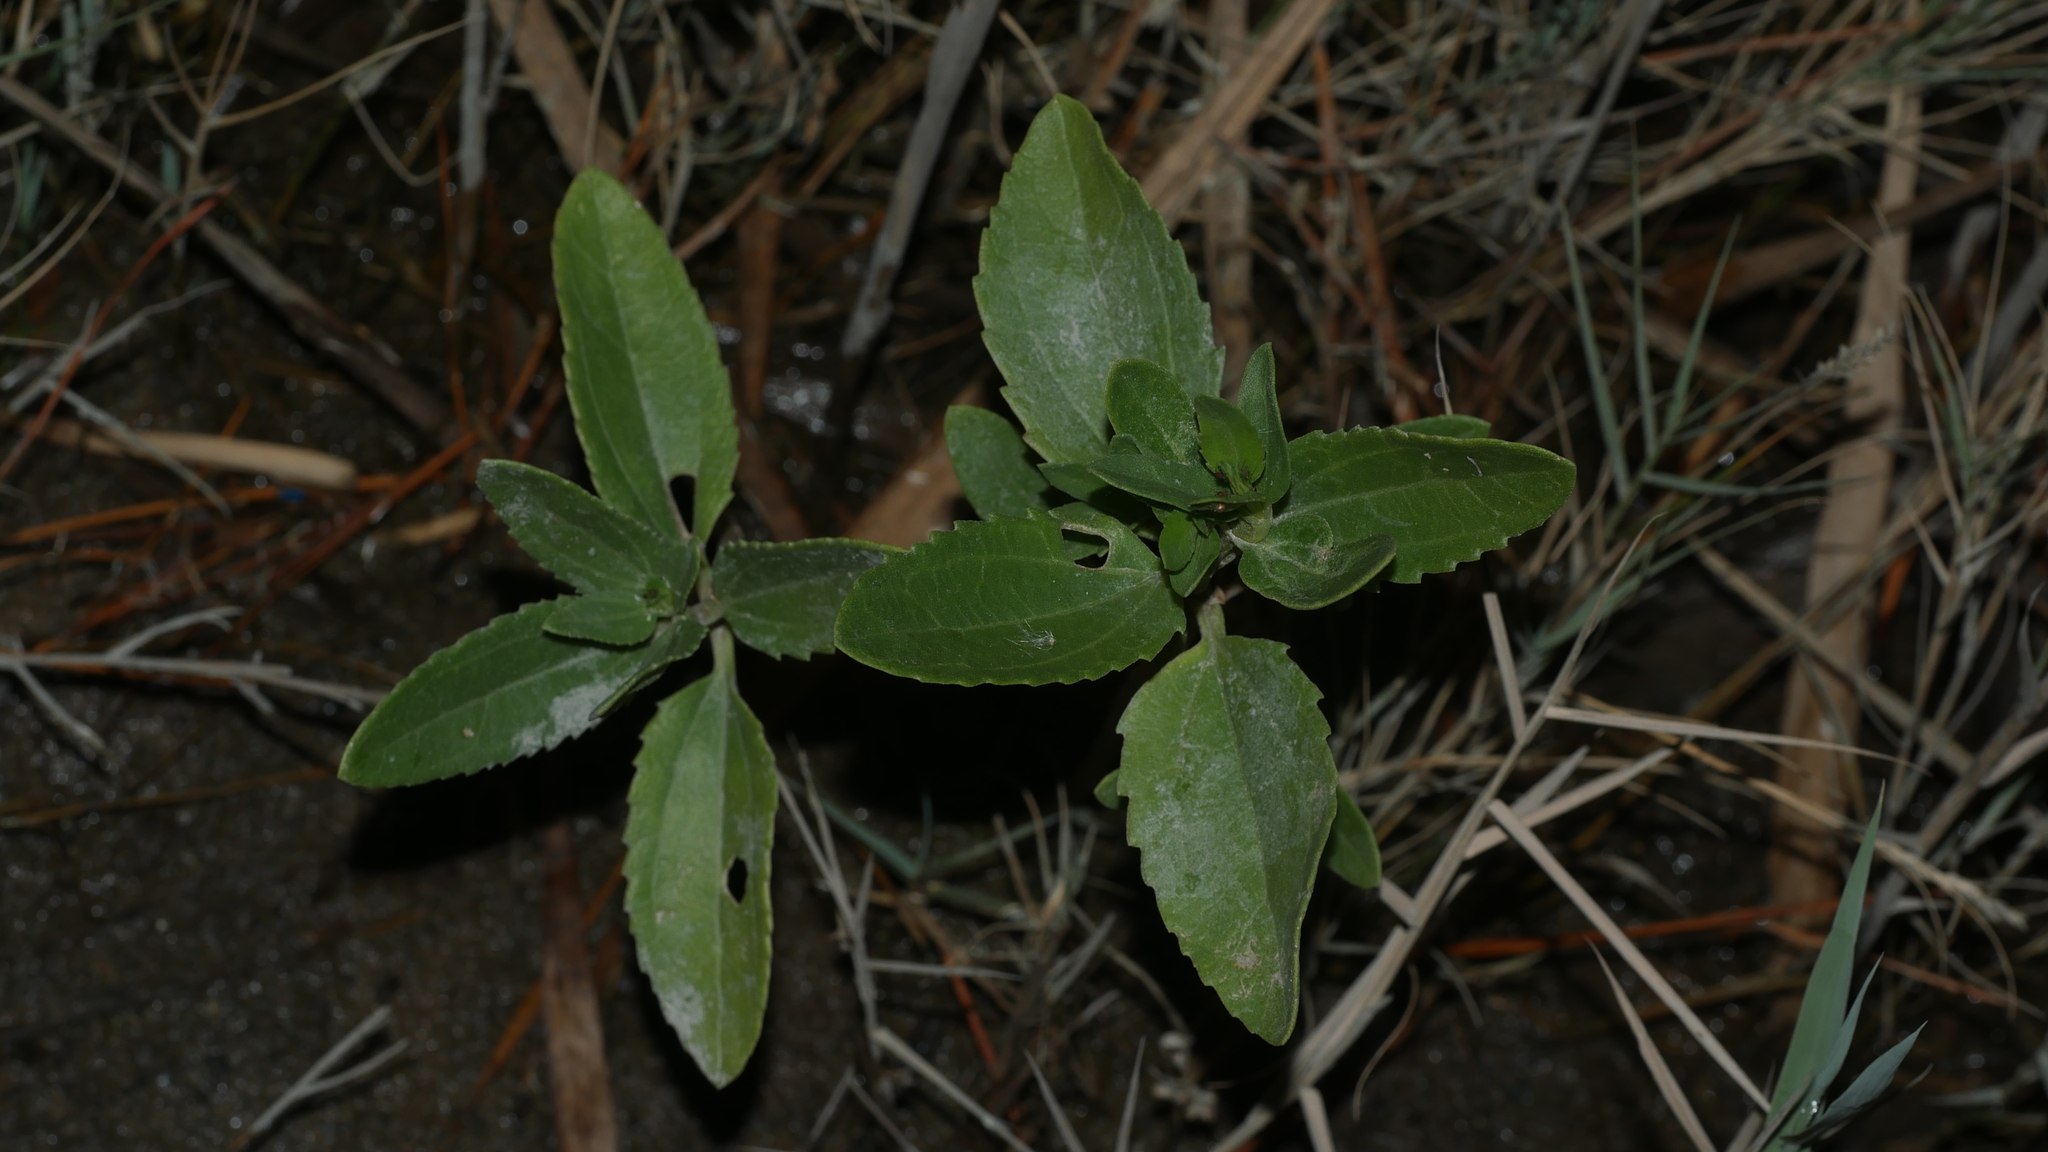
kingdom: Plantae
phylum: Tracheophyta
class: Magnoliopsida
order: Asterales
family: Asteraceae
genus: Iva
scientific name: Iva frutescens
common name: Big-leaved marsh-elder
